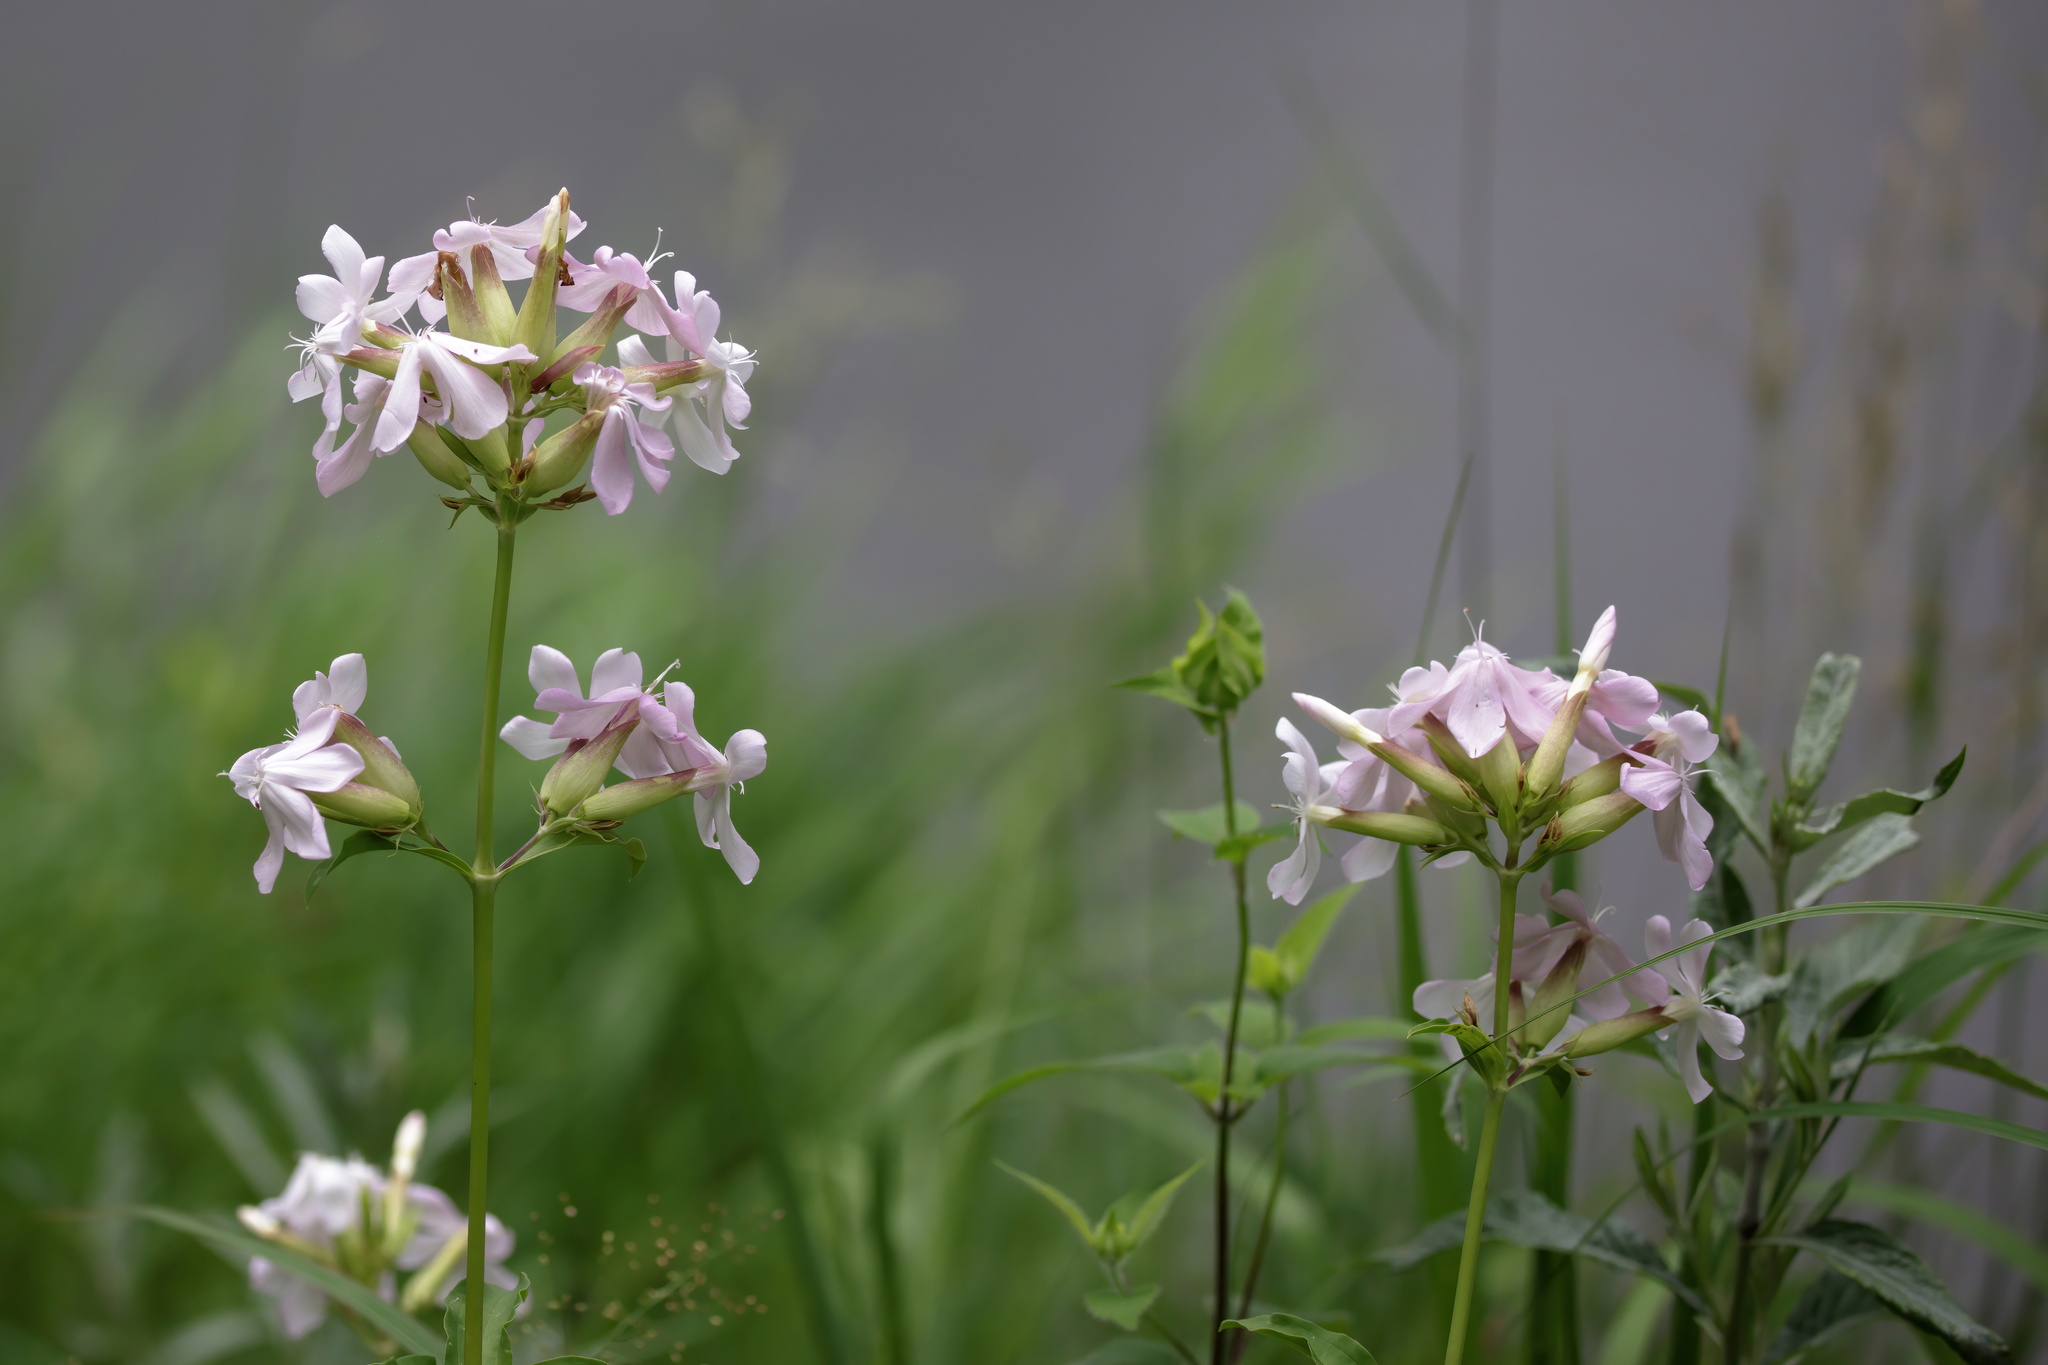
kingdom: Plantae
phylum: Tracheophyta
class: Magnoliopsida
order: Caryophyllales
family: Caryophyllaceae
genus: Saponaria
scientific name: Saponaria officinalis
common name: Soapwort
